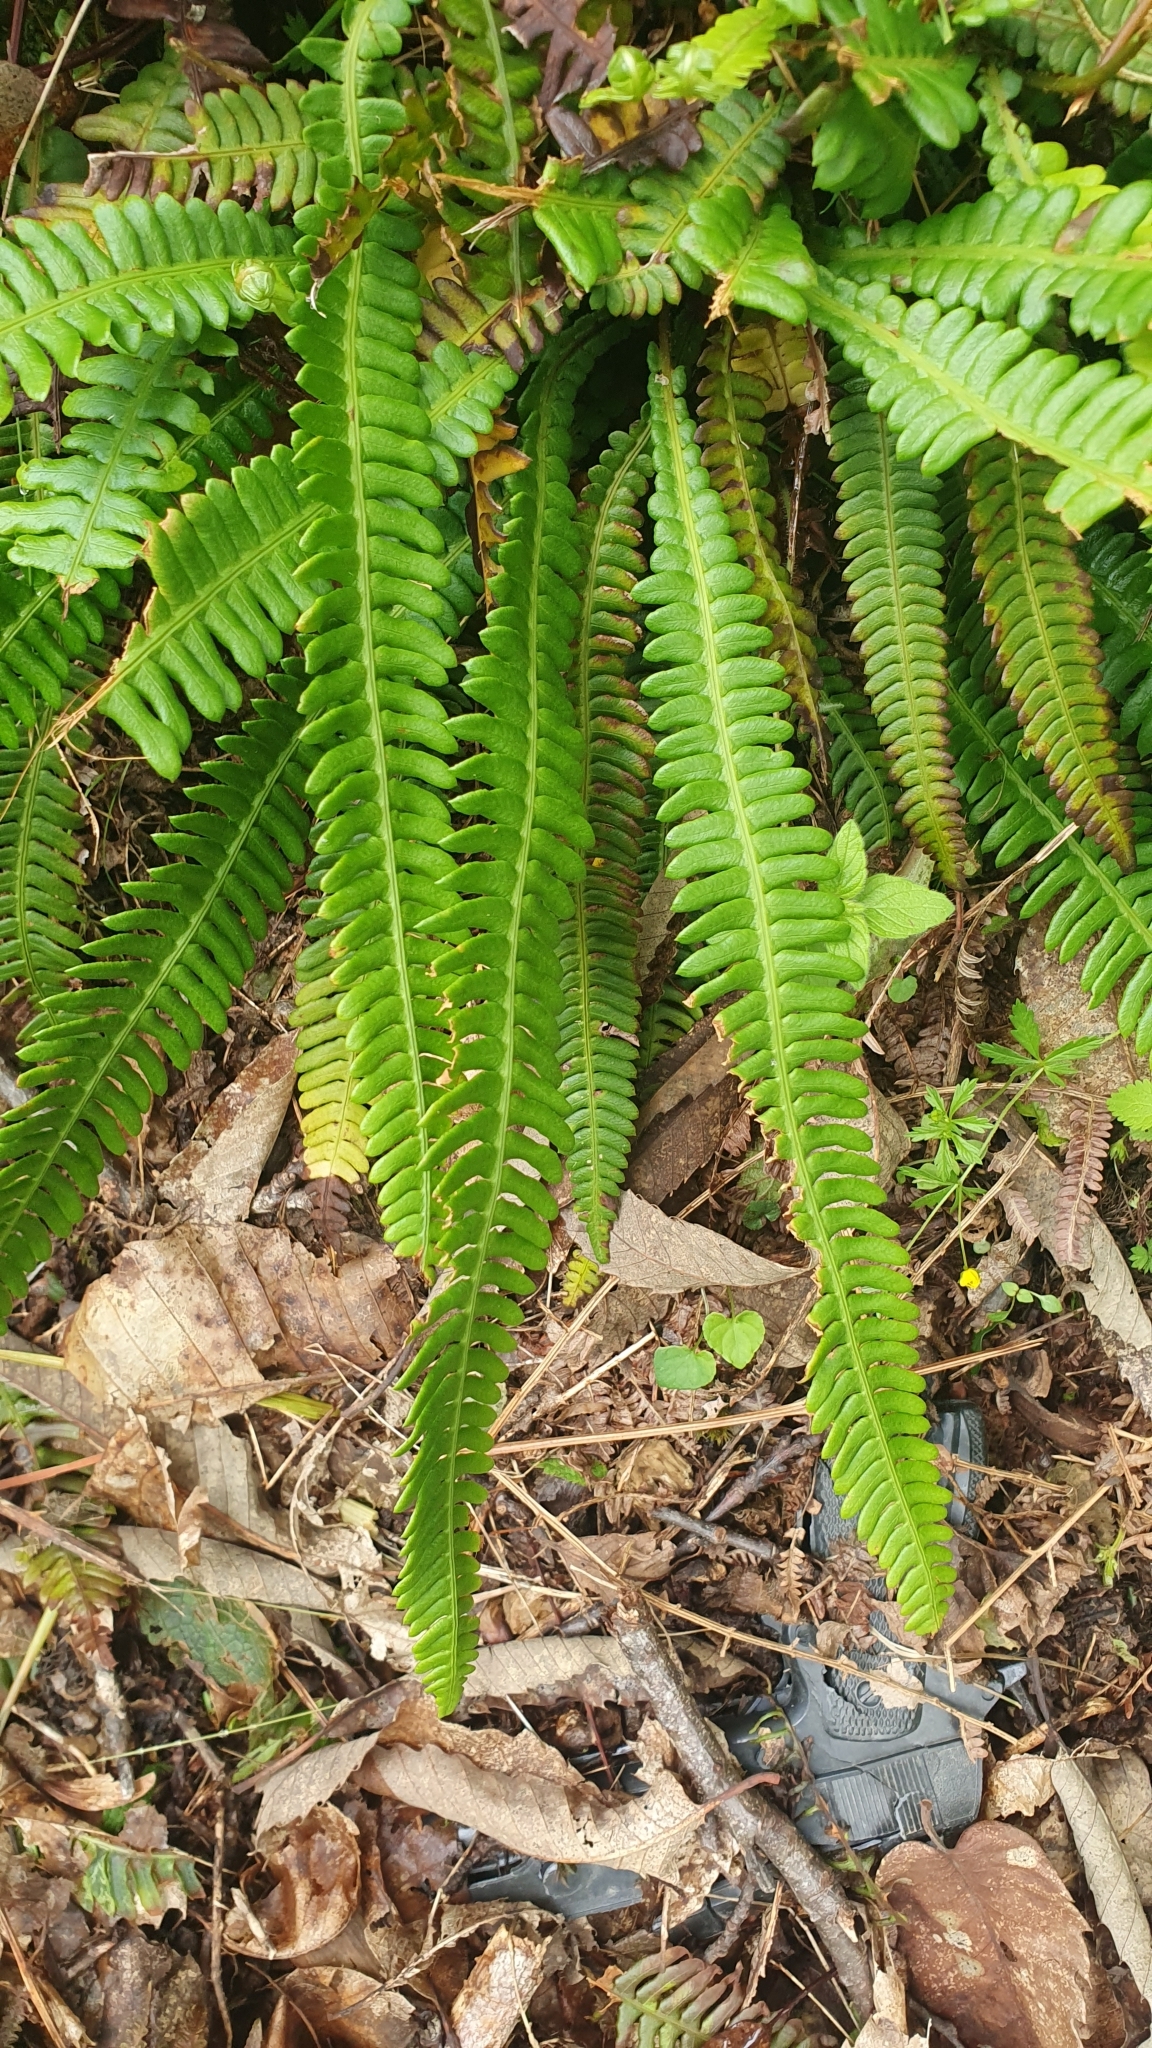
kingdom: Plantae
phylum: Tracheophyta
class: Polypodiopsida
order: Polypodiales
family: Blechnaceae
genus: Struthiopteris
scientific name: Struthiopteris spicant
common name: Deer fern
